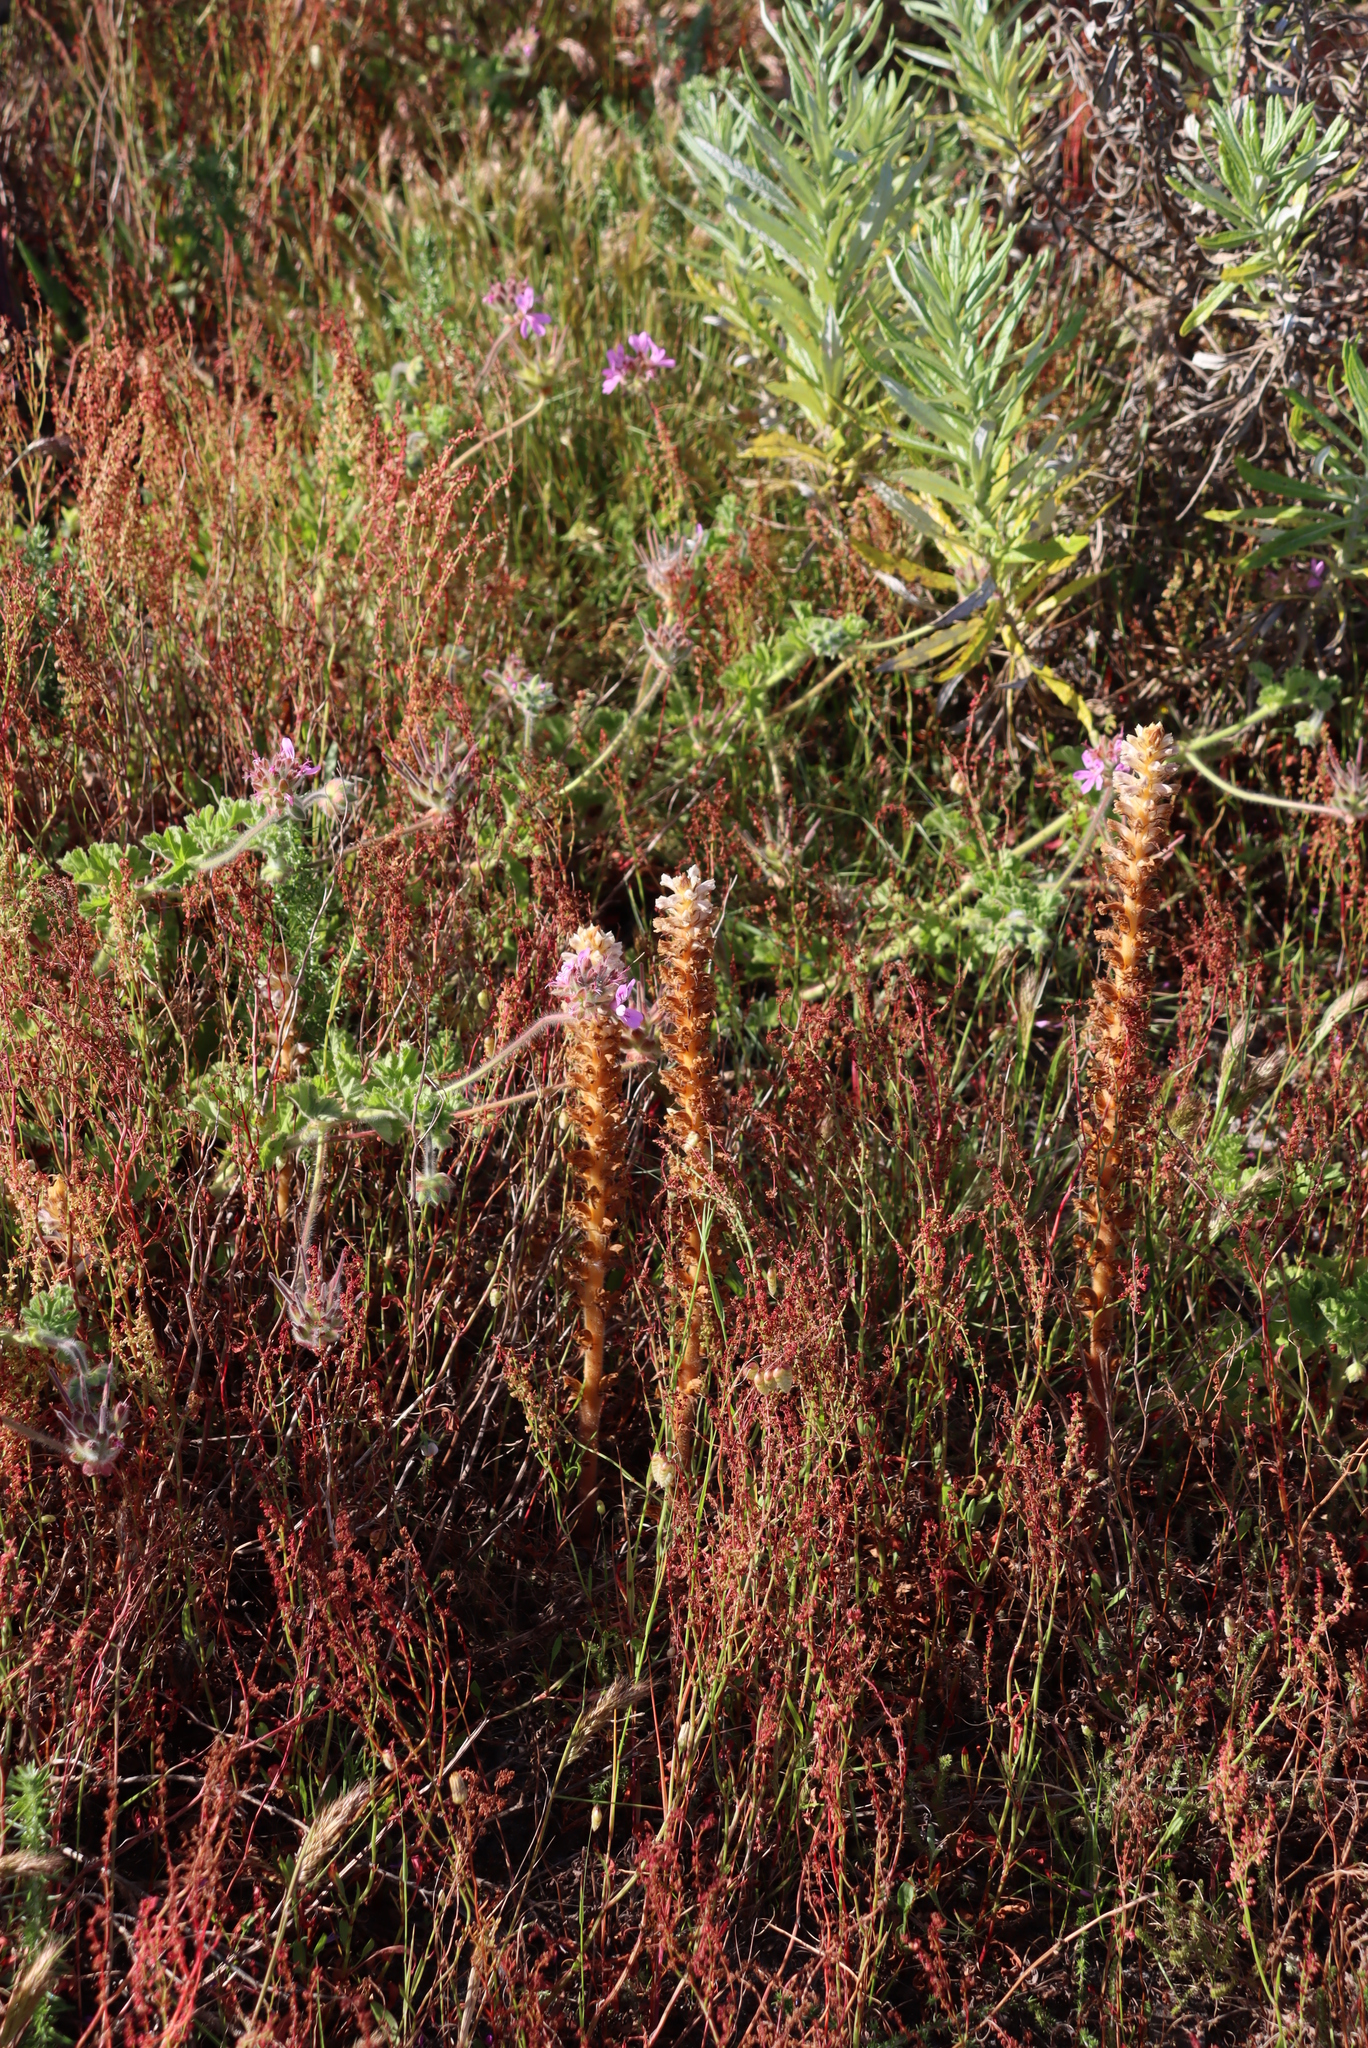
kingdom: Plantae
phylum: Tracheophyta
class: Magnoliopsida
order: Lamiales
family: Orobanchaceae
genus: Orobanche
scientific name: Orobanche minor
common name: Common broomrape
